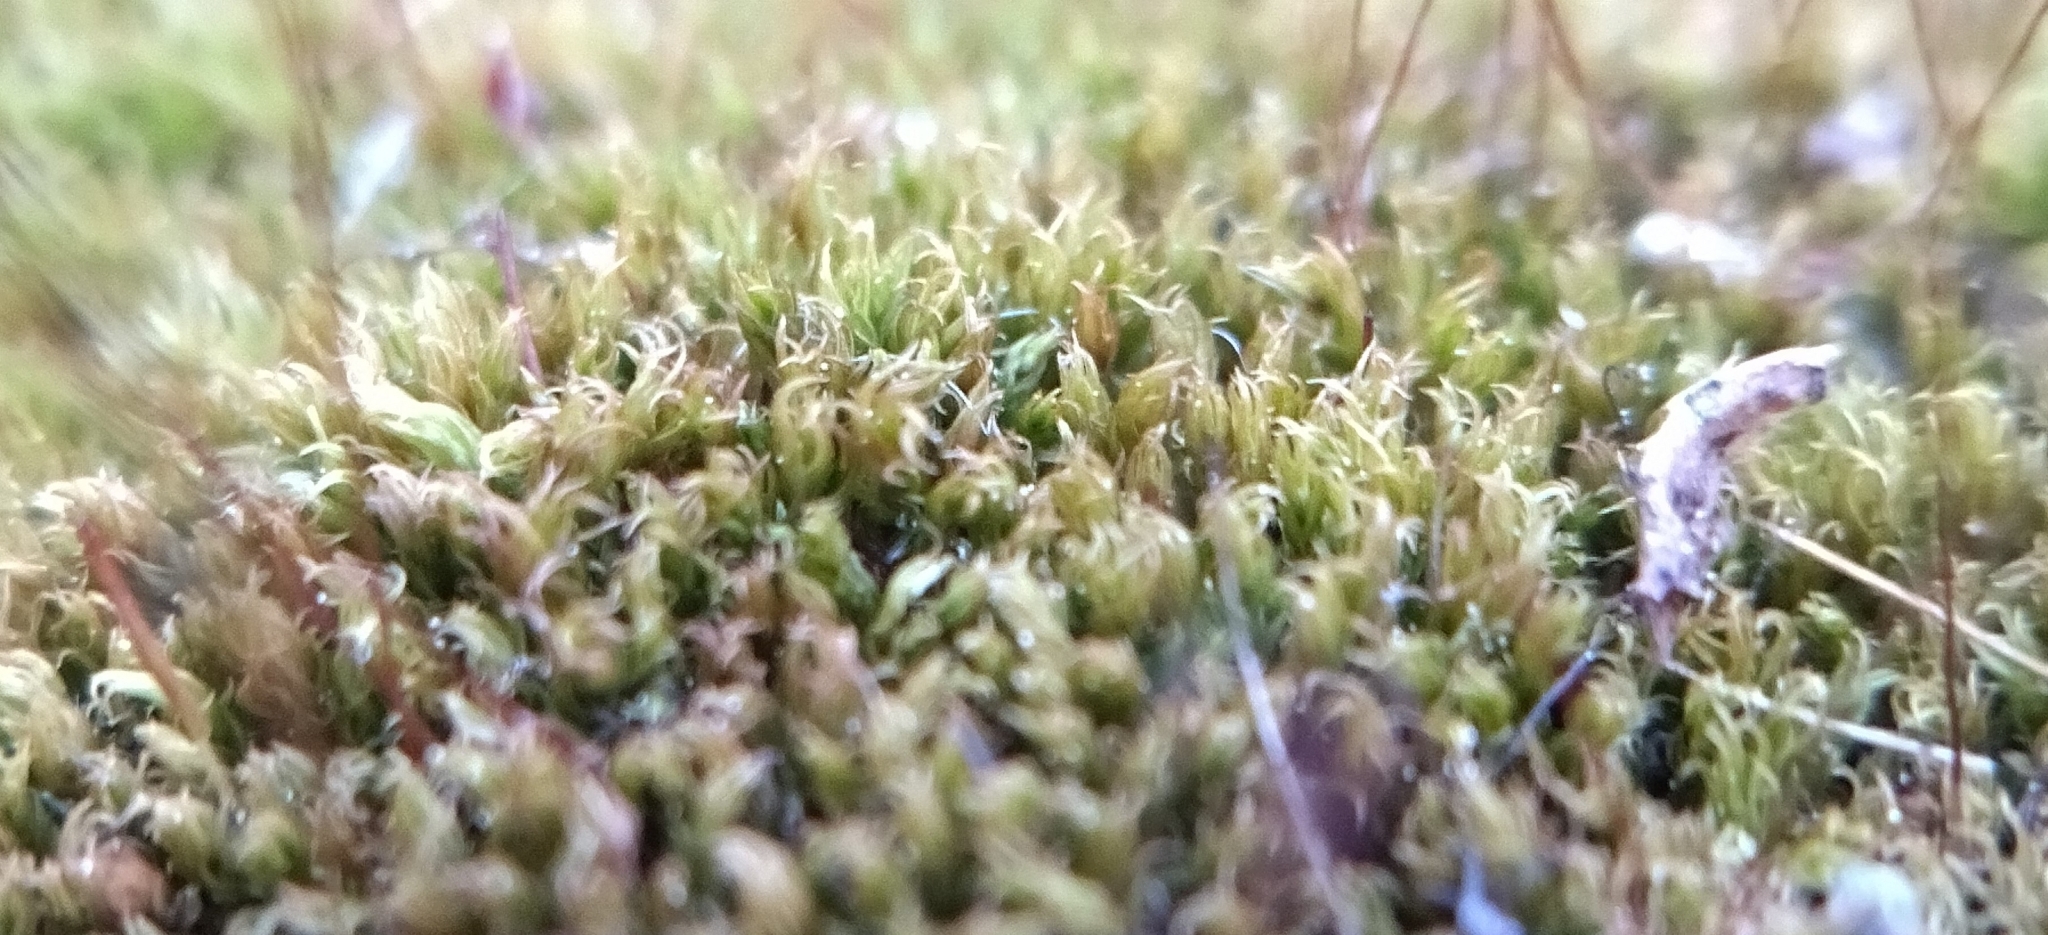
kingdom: Plantae
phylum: Bryophyta
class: Bryopsida
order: Dicranales
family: Ditrichaceae
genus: Ceratodon
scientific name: Ceratodon purpureus
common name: Redshank
